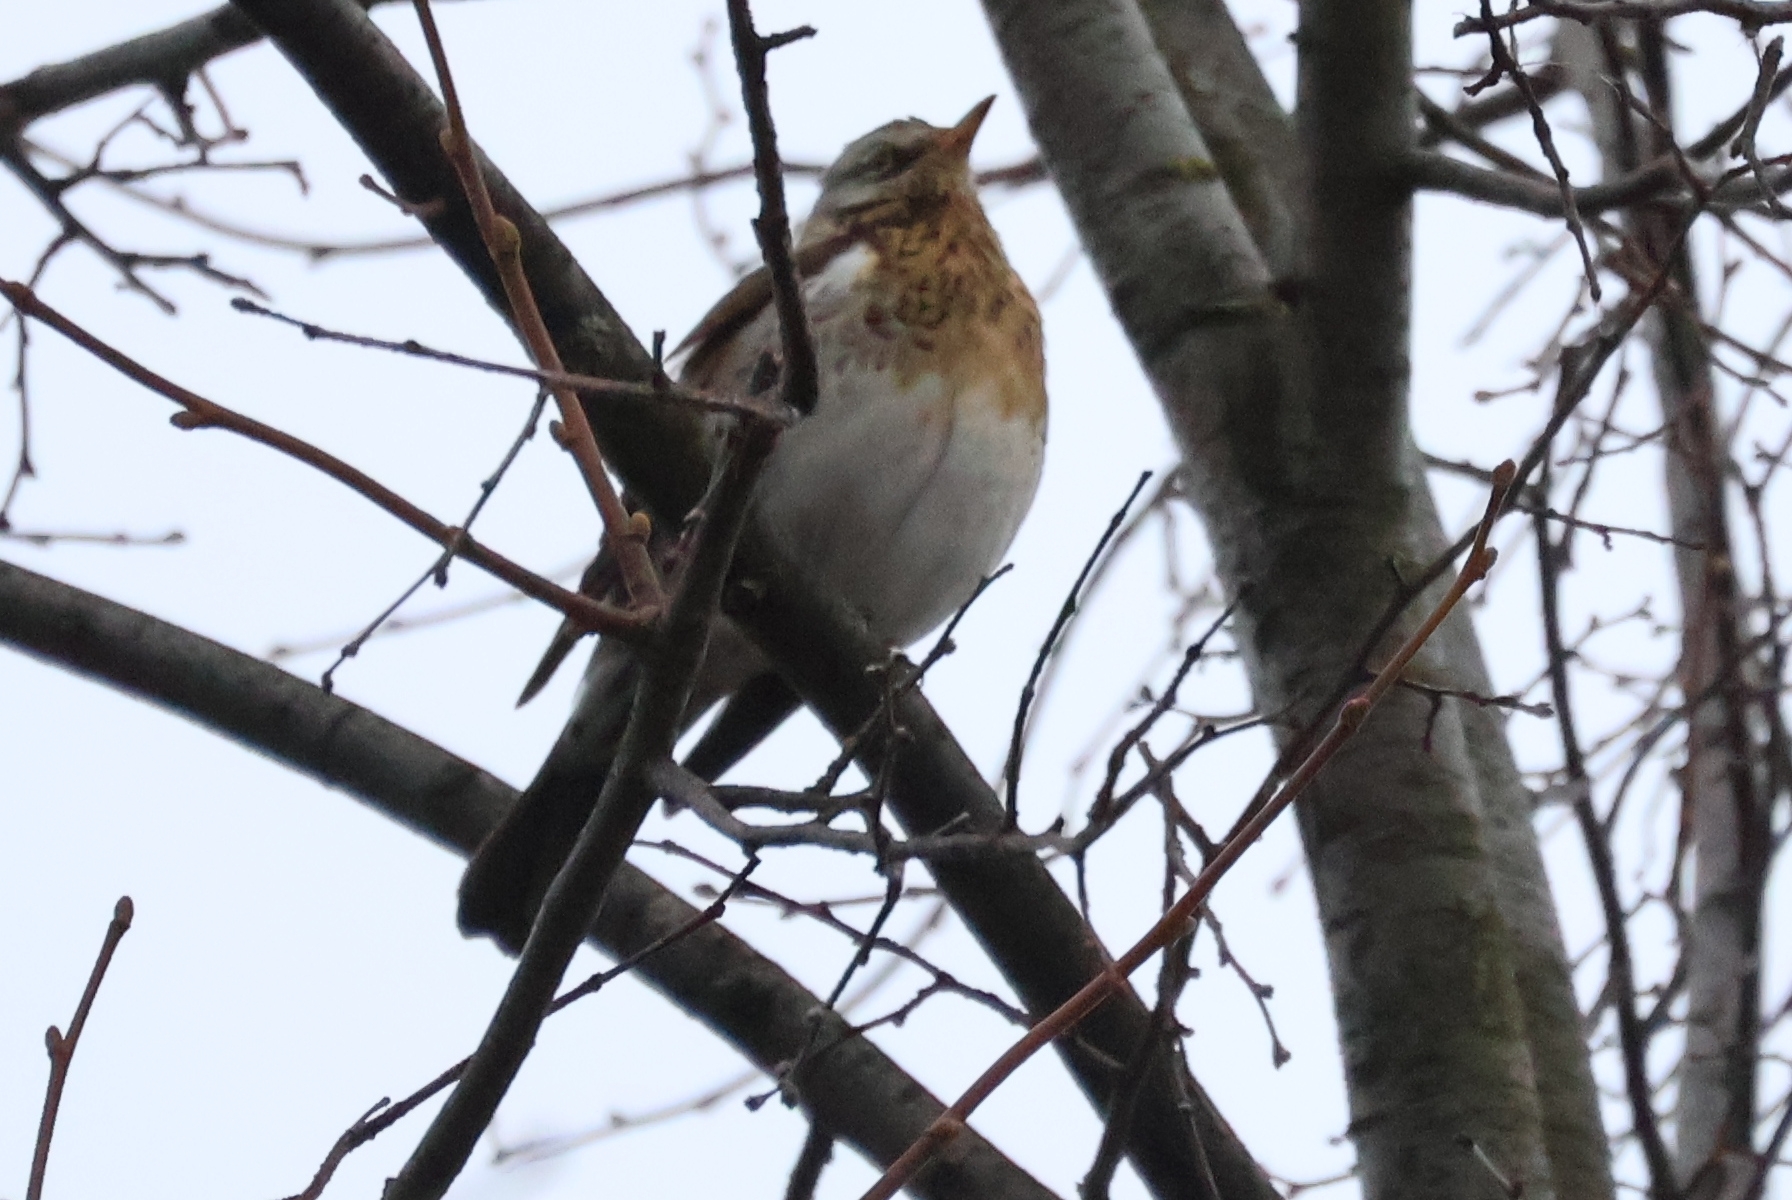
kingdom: Animalia
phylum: Chordata
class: Aves
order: Passeriformes
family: Turdidae
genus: Turdus
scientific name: Turdus pilaris
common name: Fieldfare
